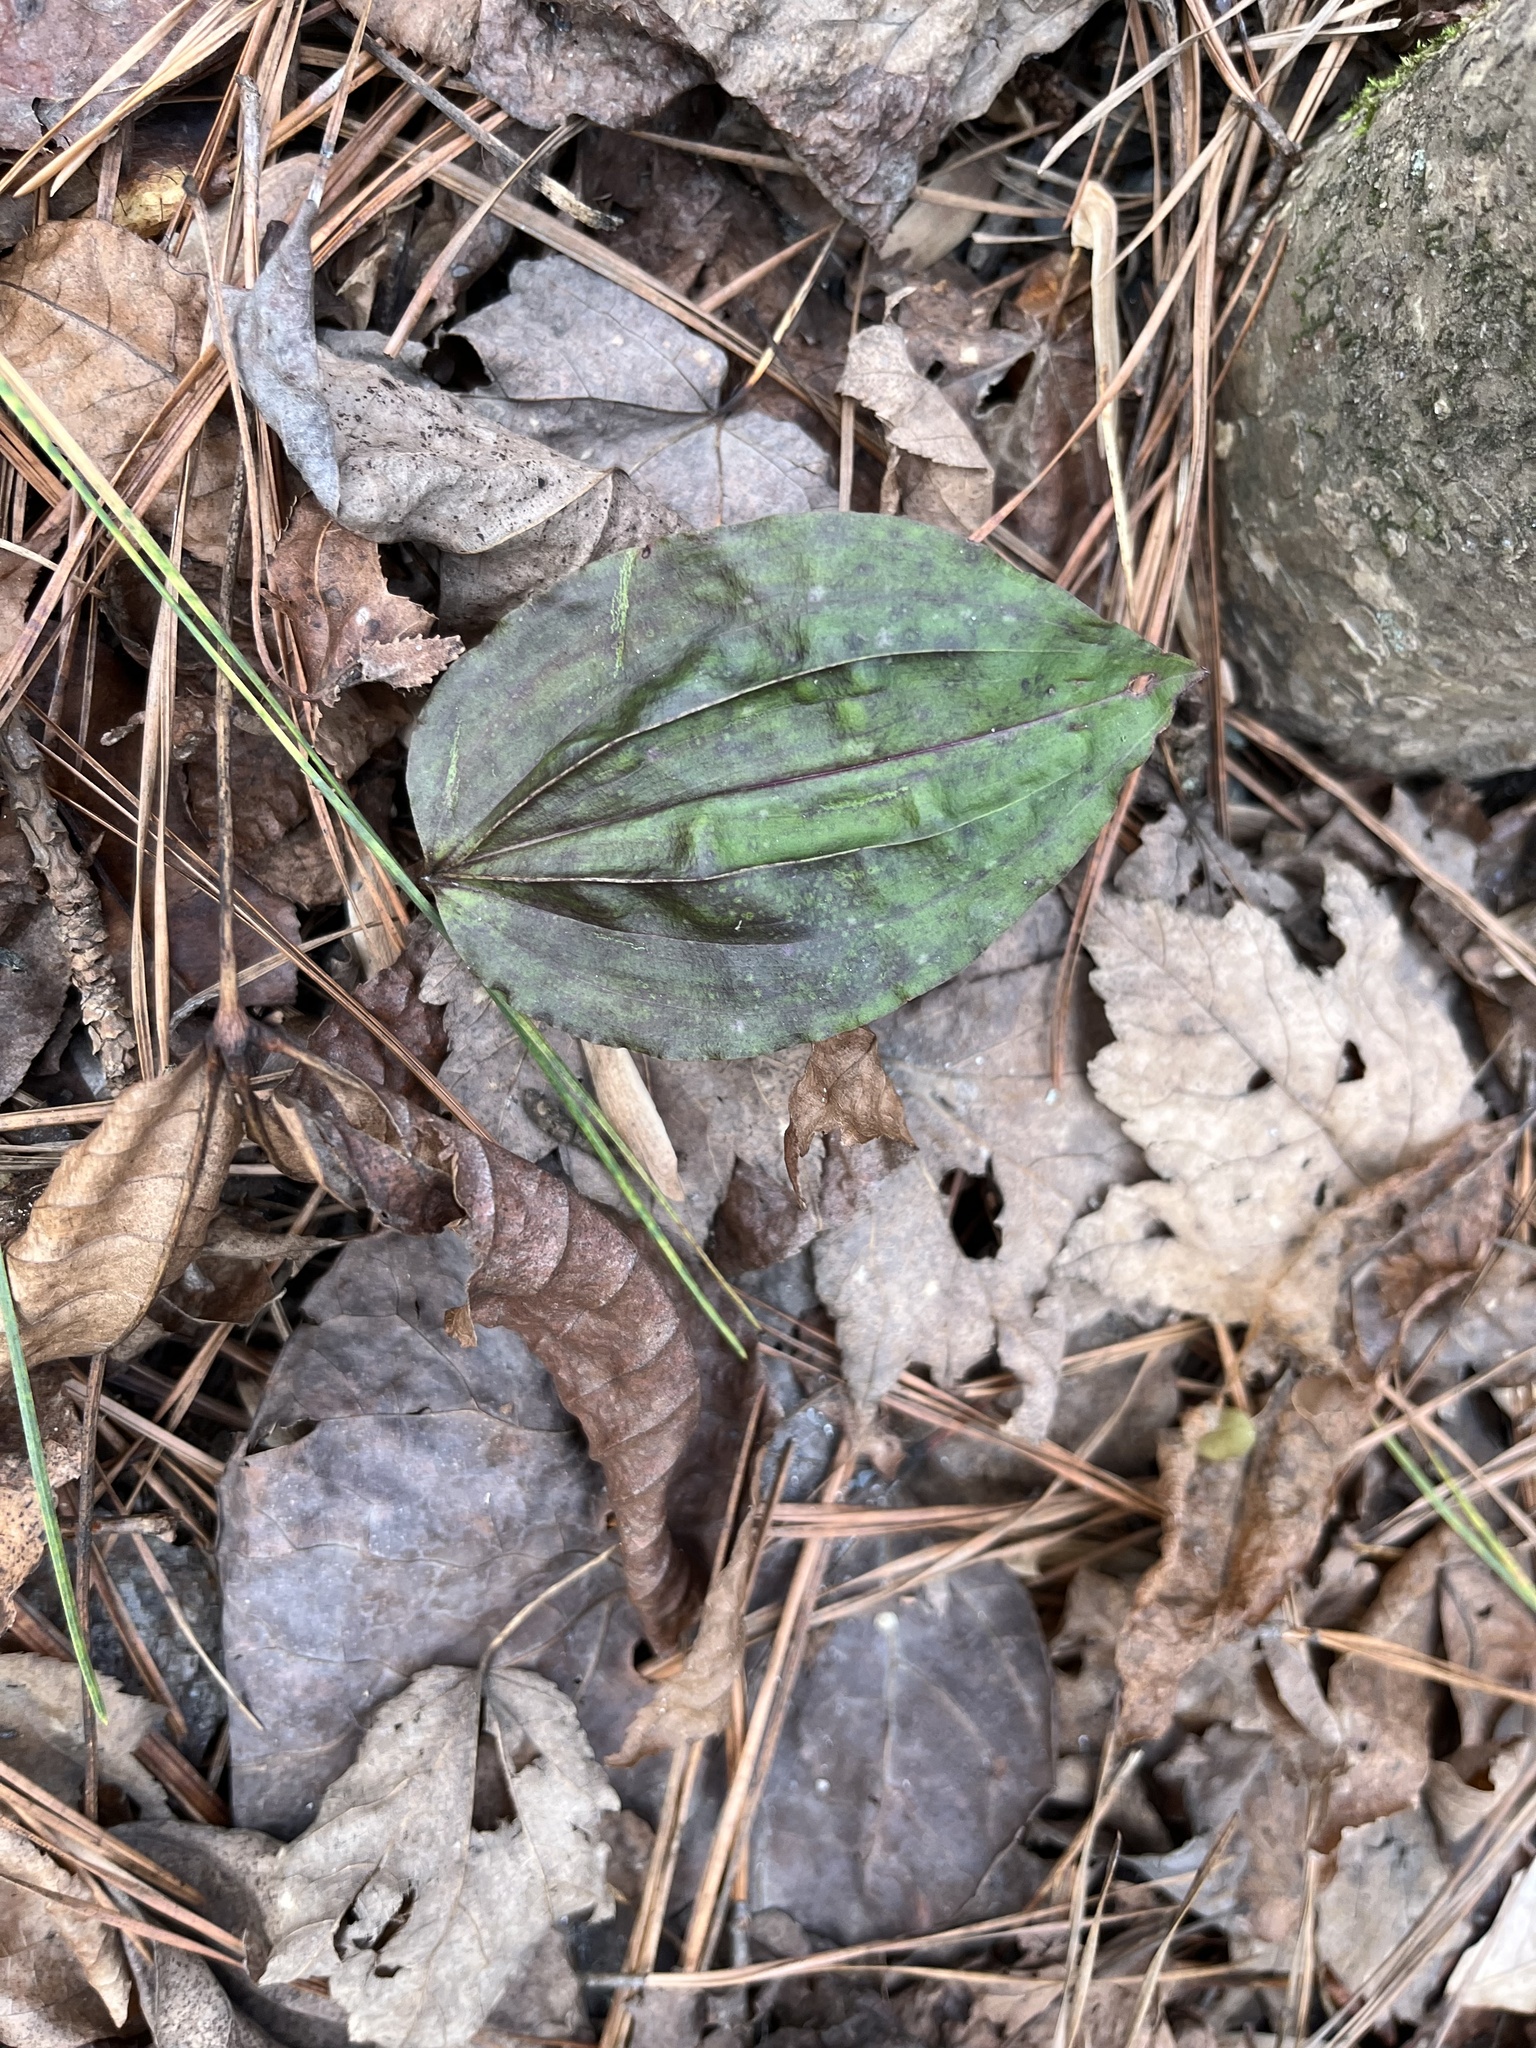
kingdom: Plantae
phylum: Tracheophyta
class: Liliopsida
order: Asparagales
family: Orchidaceae
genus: Tipularia
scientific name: Tipularia discolor
